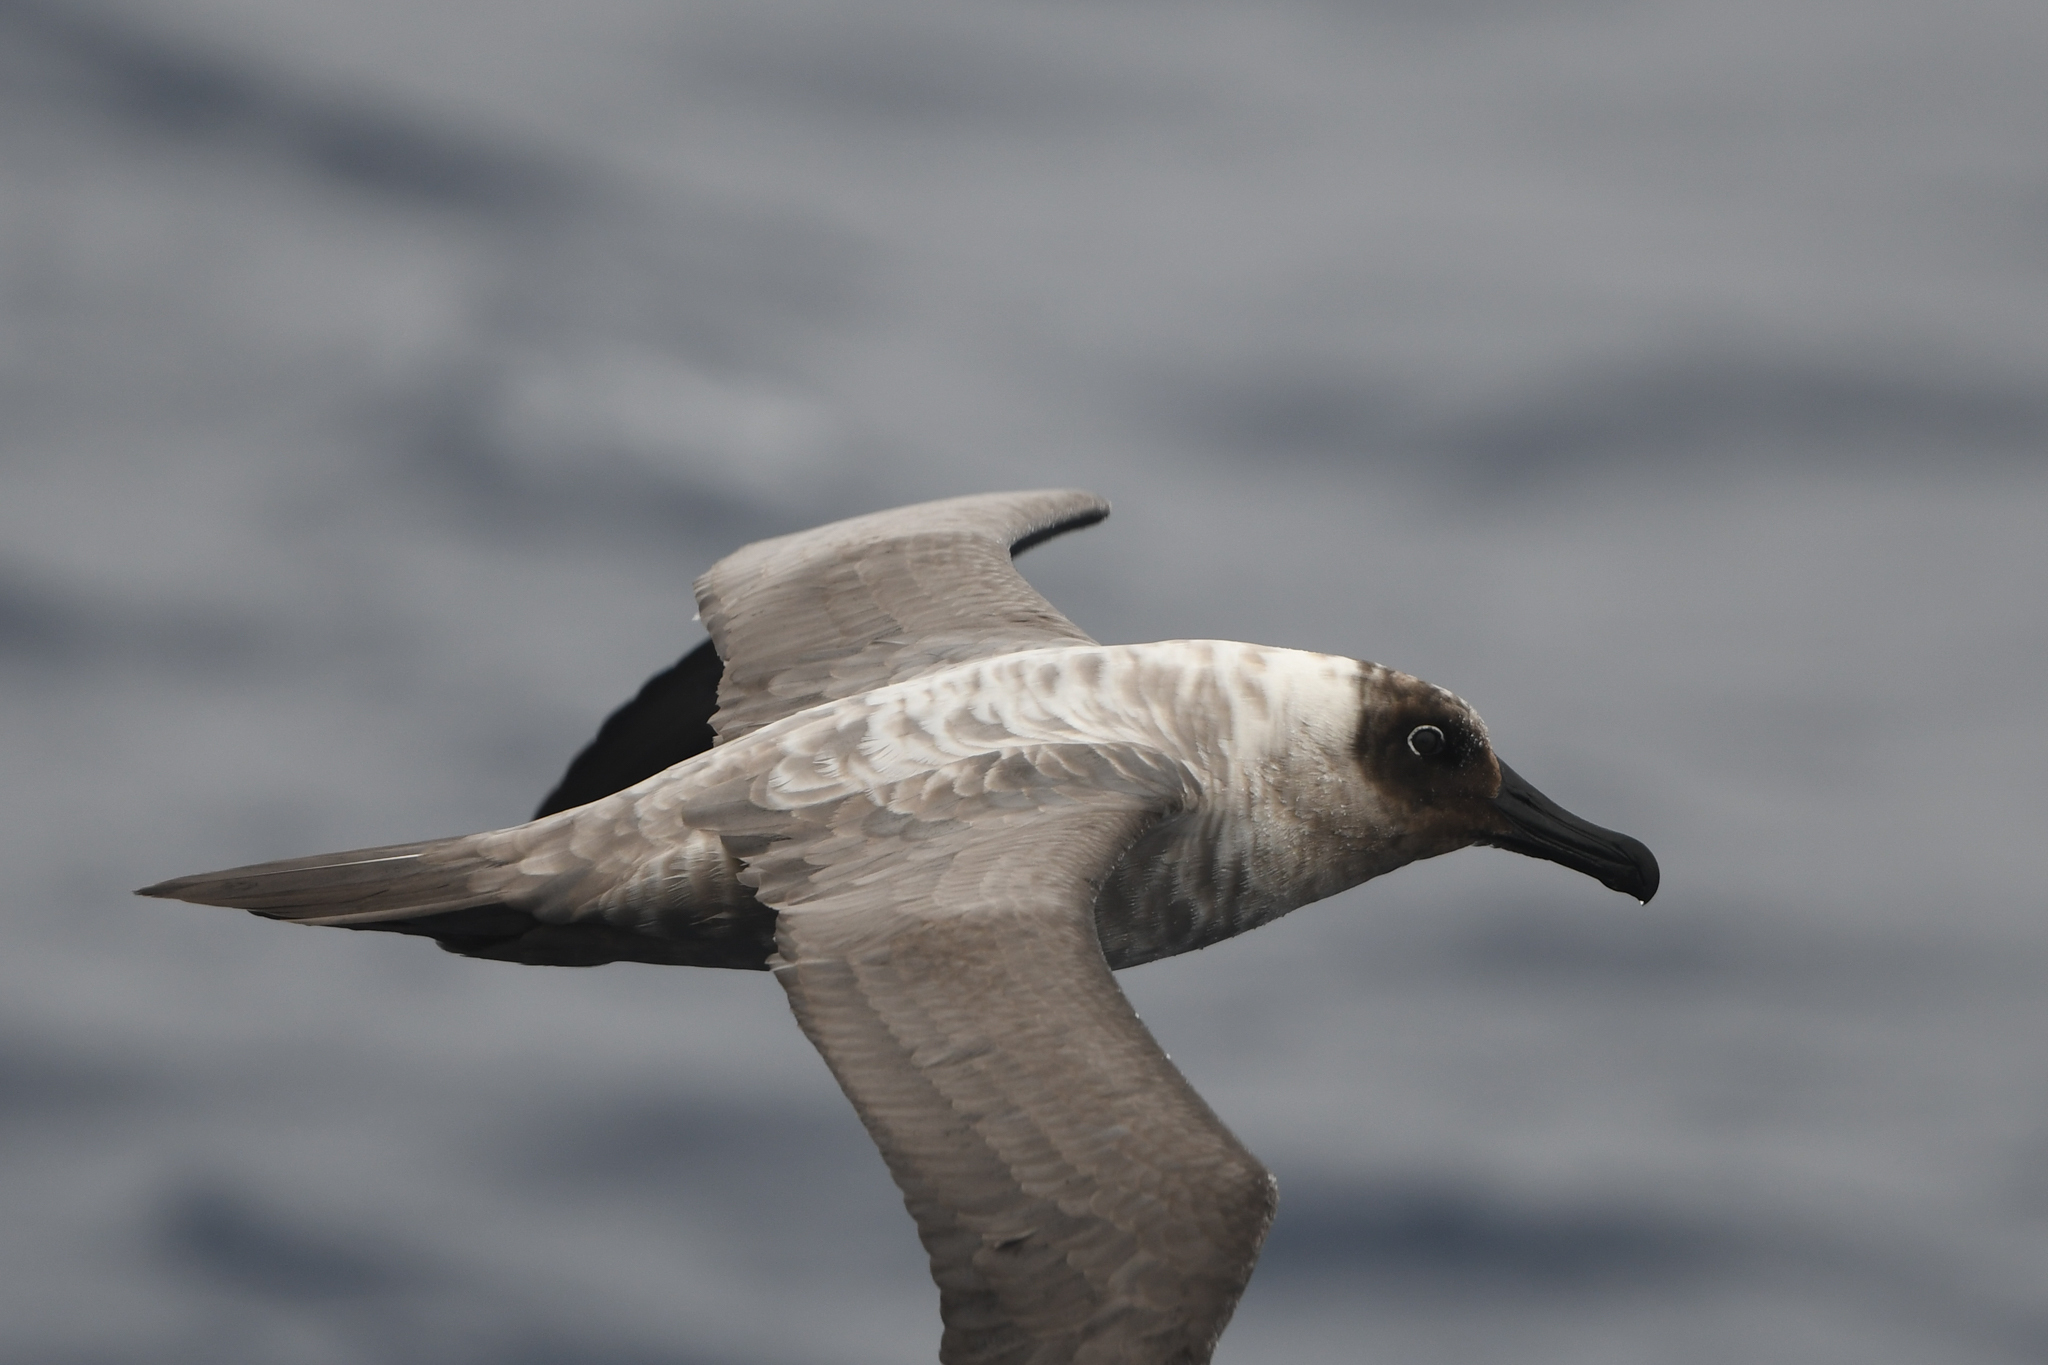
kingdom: Animalia
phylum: Chordata
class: Aves
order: Procellariiformes
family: Diomedeidae
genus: Phoebetria
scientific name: Phoebetria palpebrata
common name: Light-mantled albatross
